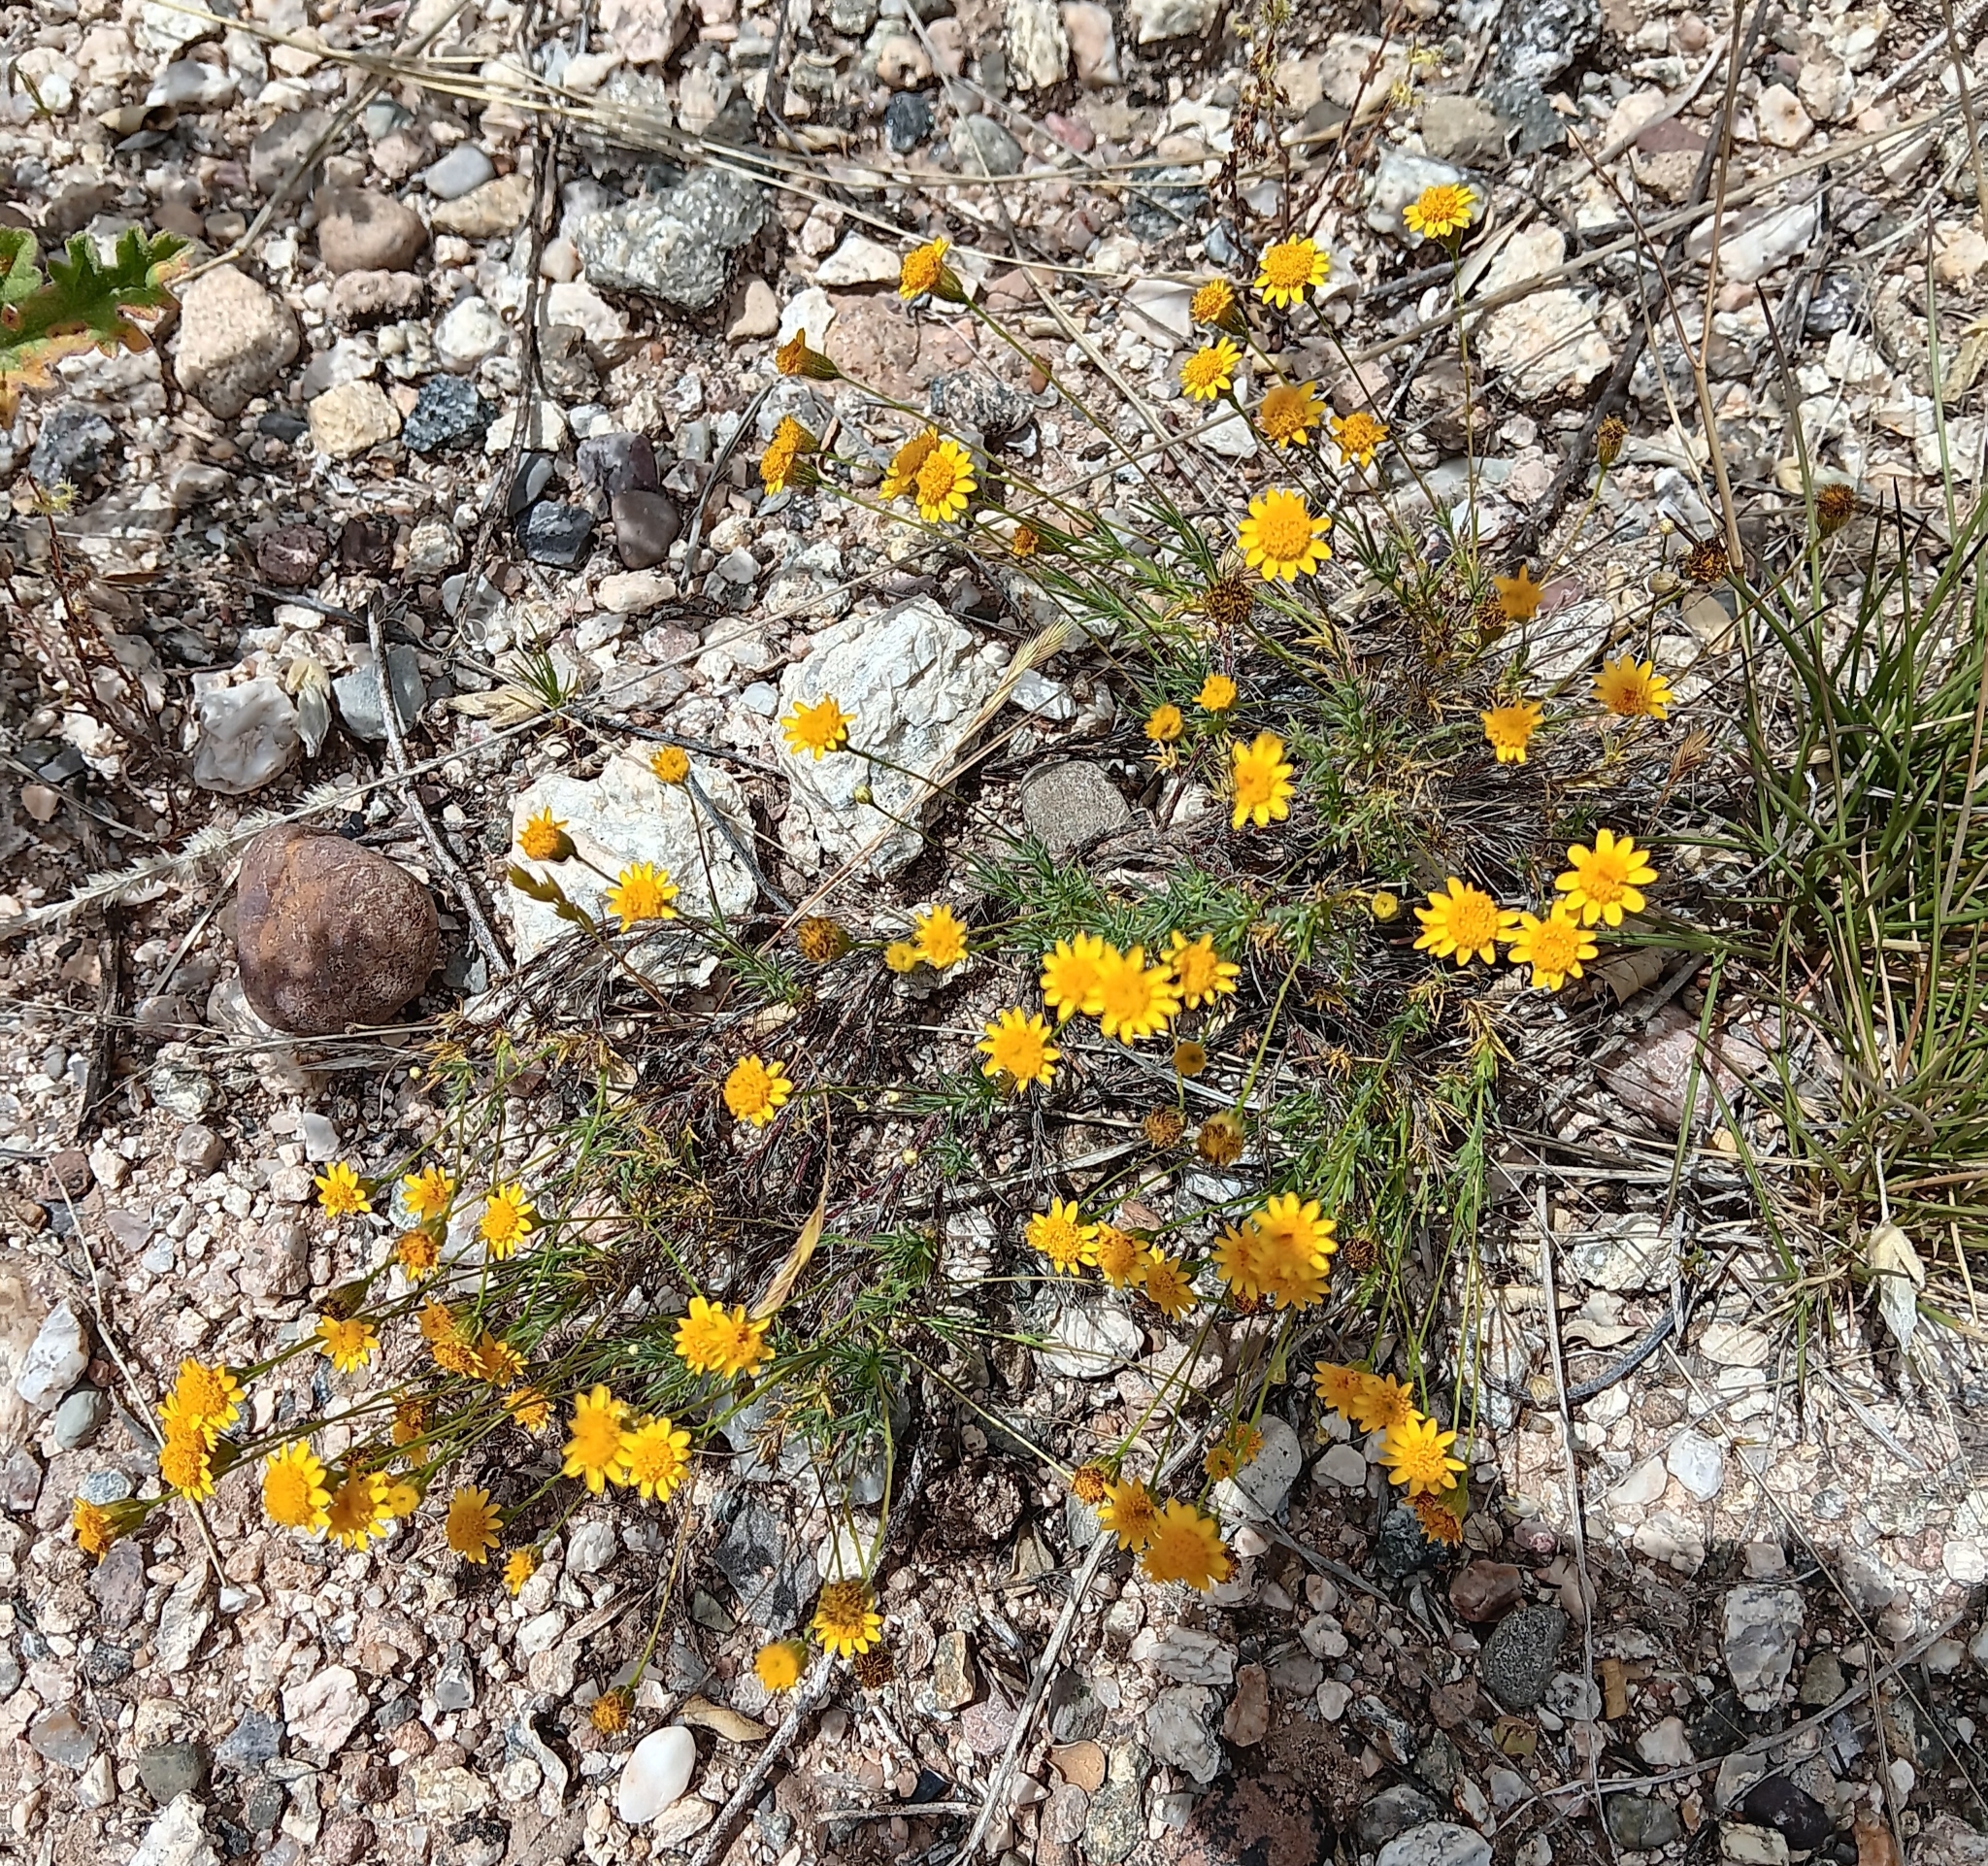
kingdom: Plantae
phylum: Tracheophyta
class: Magnoliopsida
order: Asterales
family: Asteraceae
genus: Thymophylla
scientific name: Thymophylla pentachaeta
